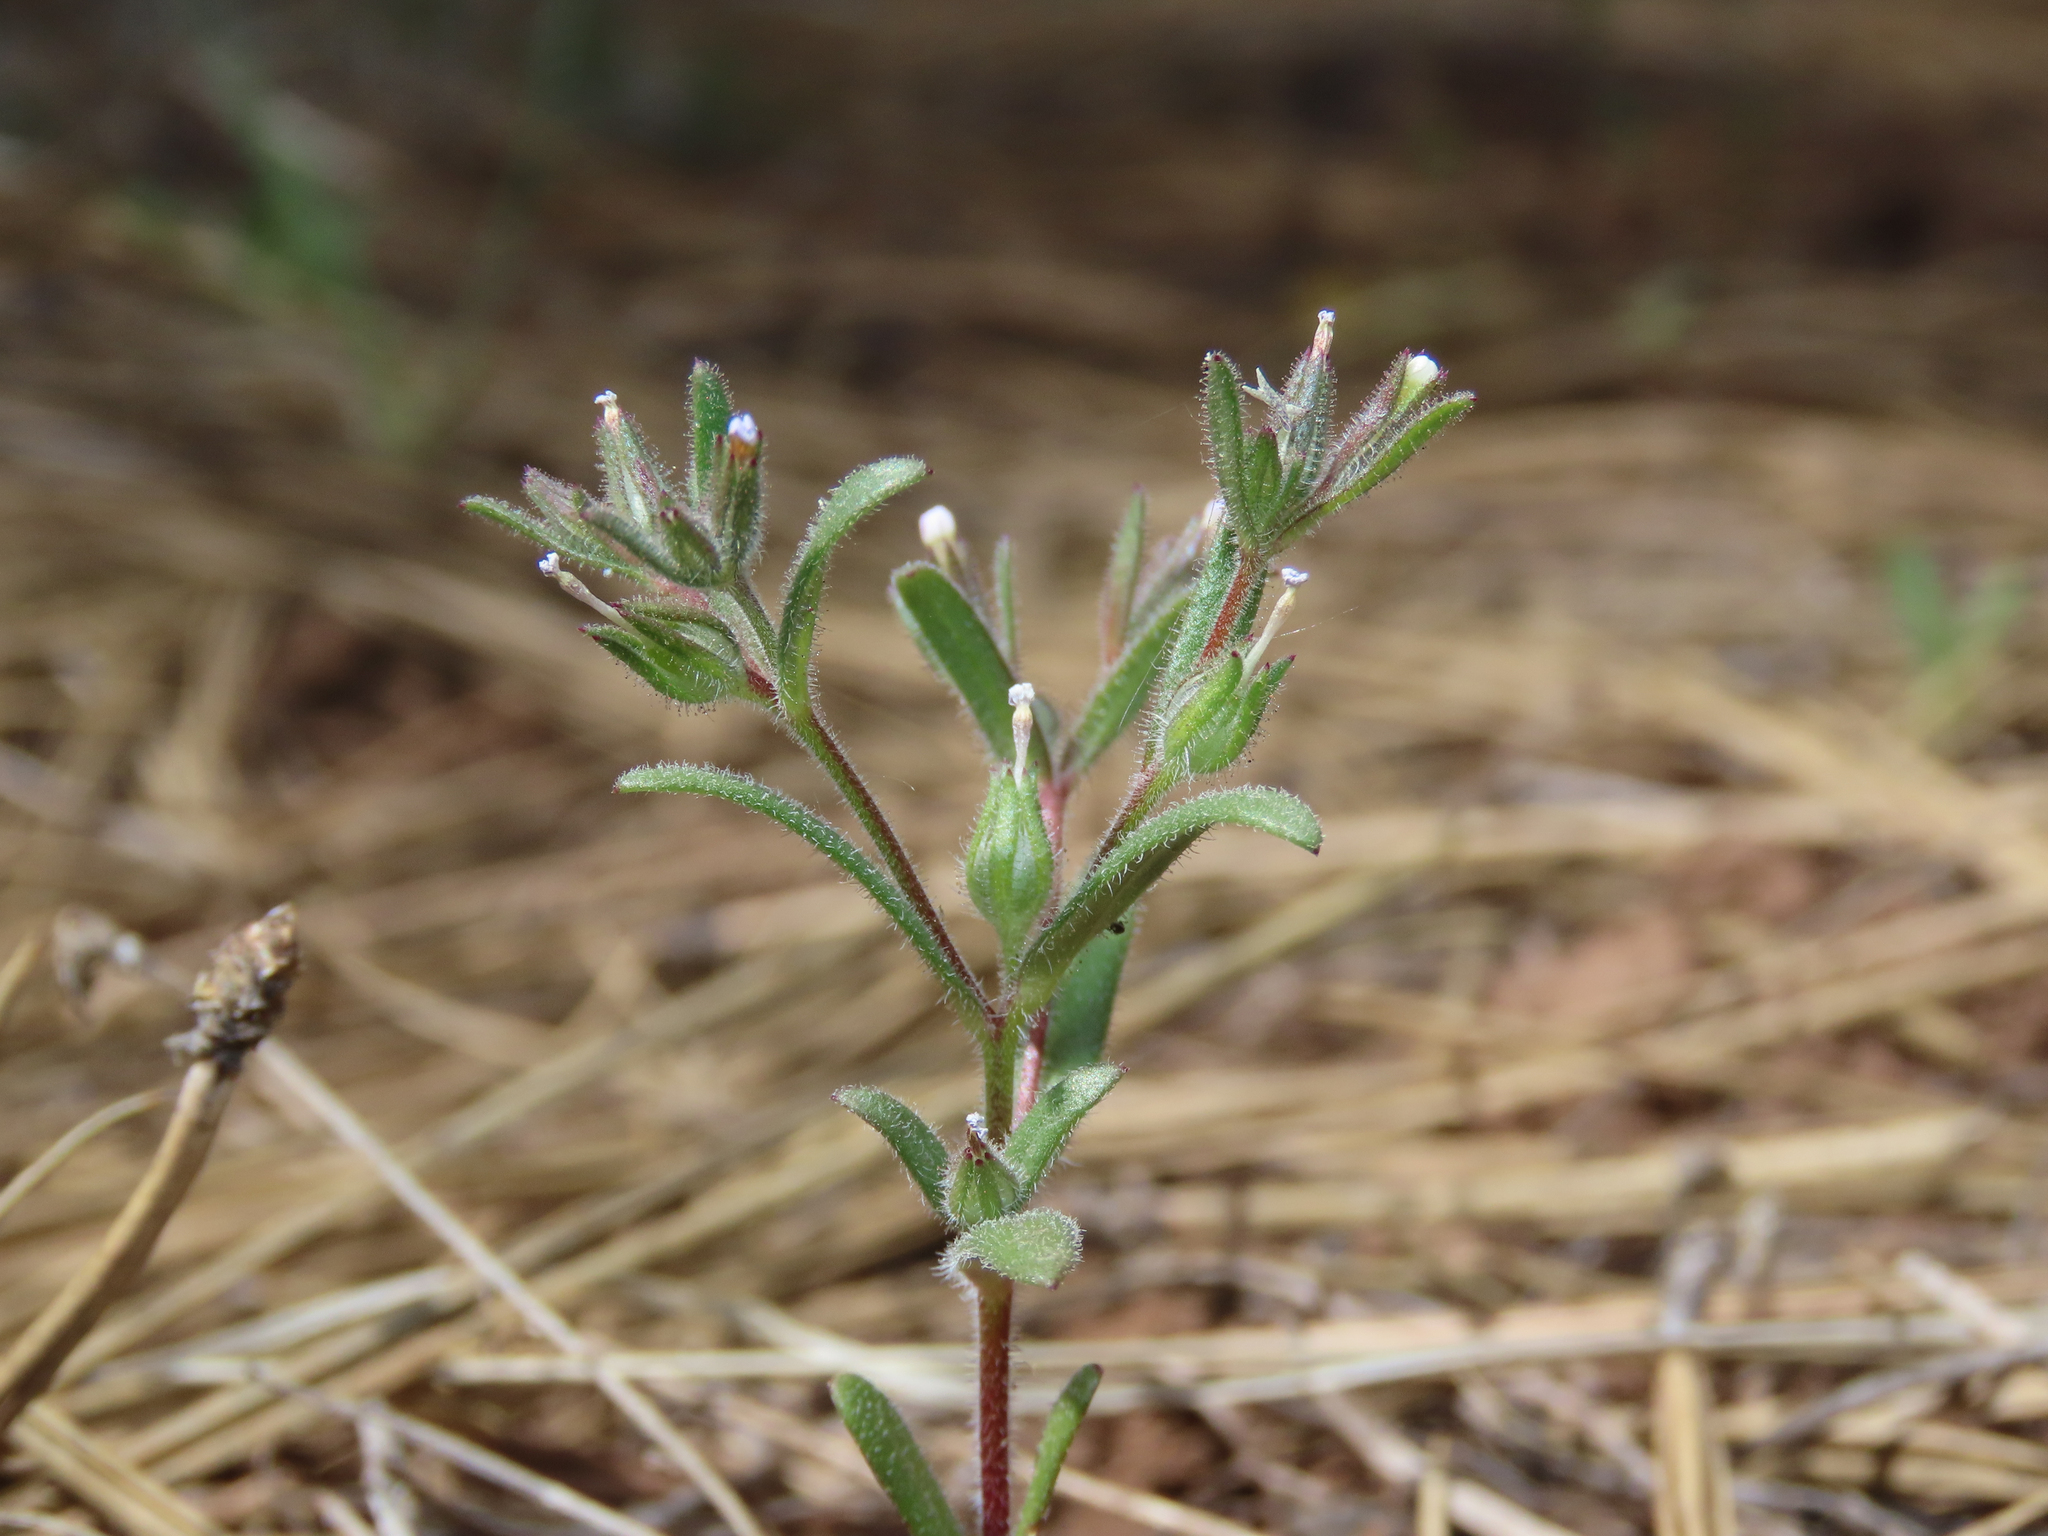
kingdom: Plantae
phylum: Tracheophyta
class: Magnoliopsida
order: Ericales
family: Polemoniaceae
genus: Phlox
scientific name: Phlox gracilis
